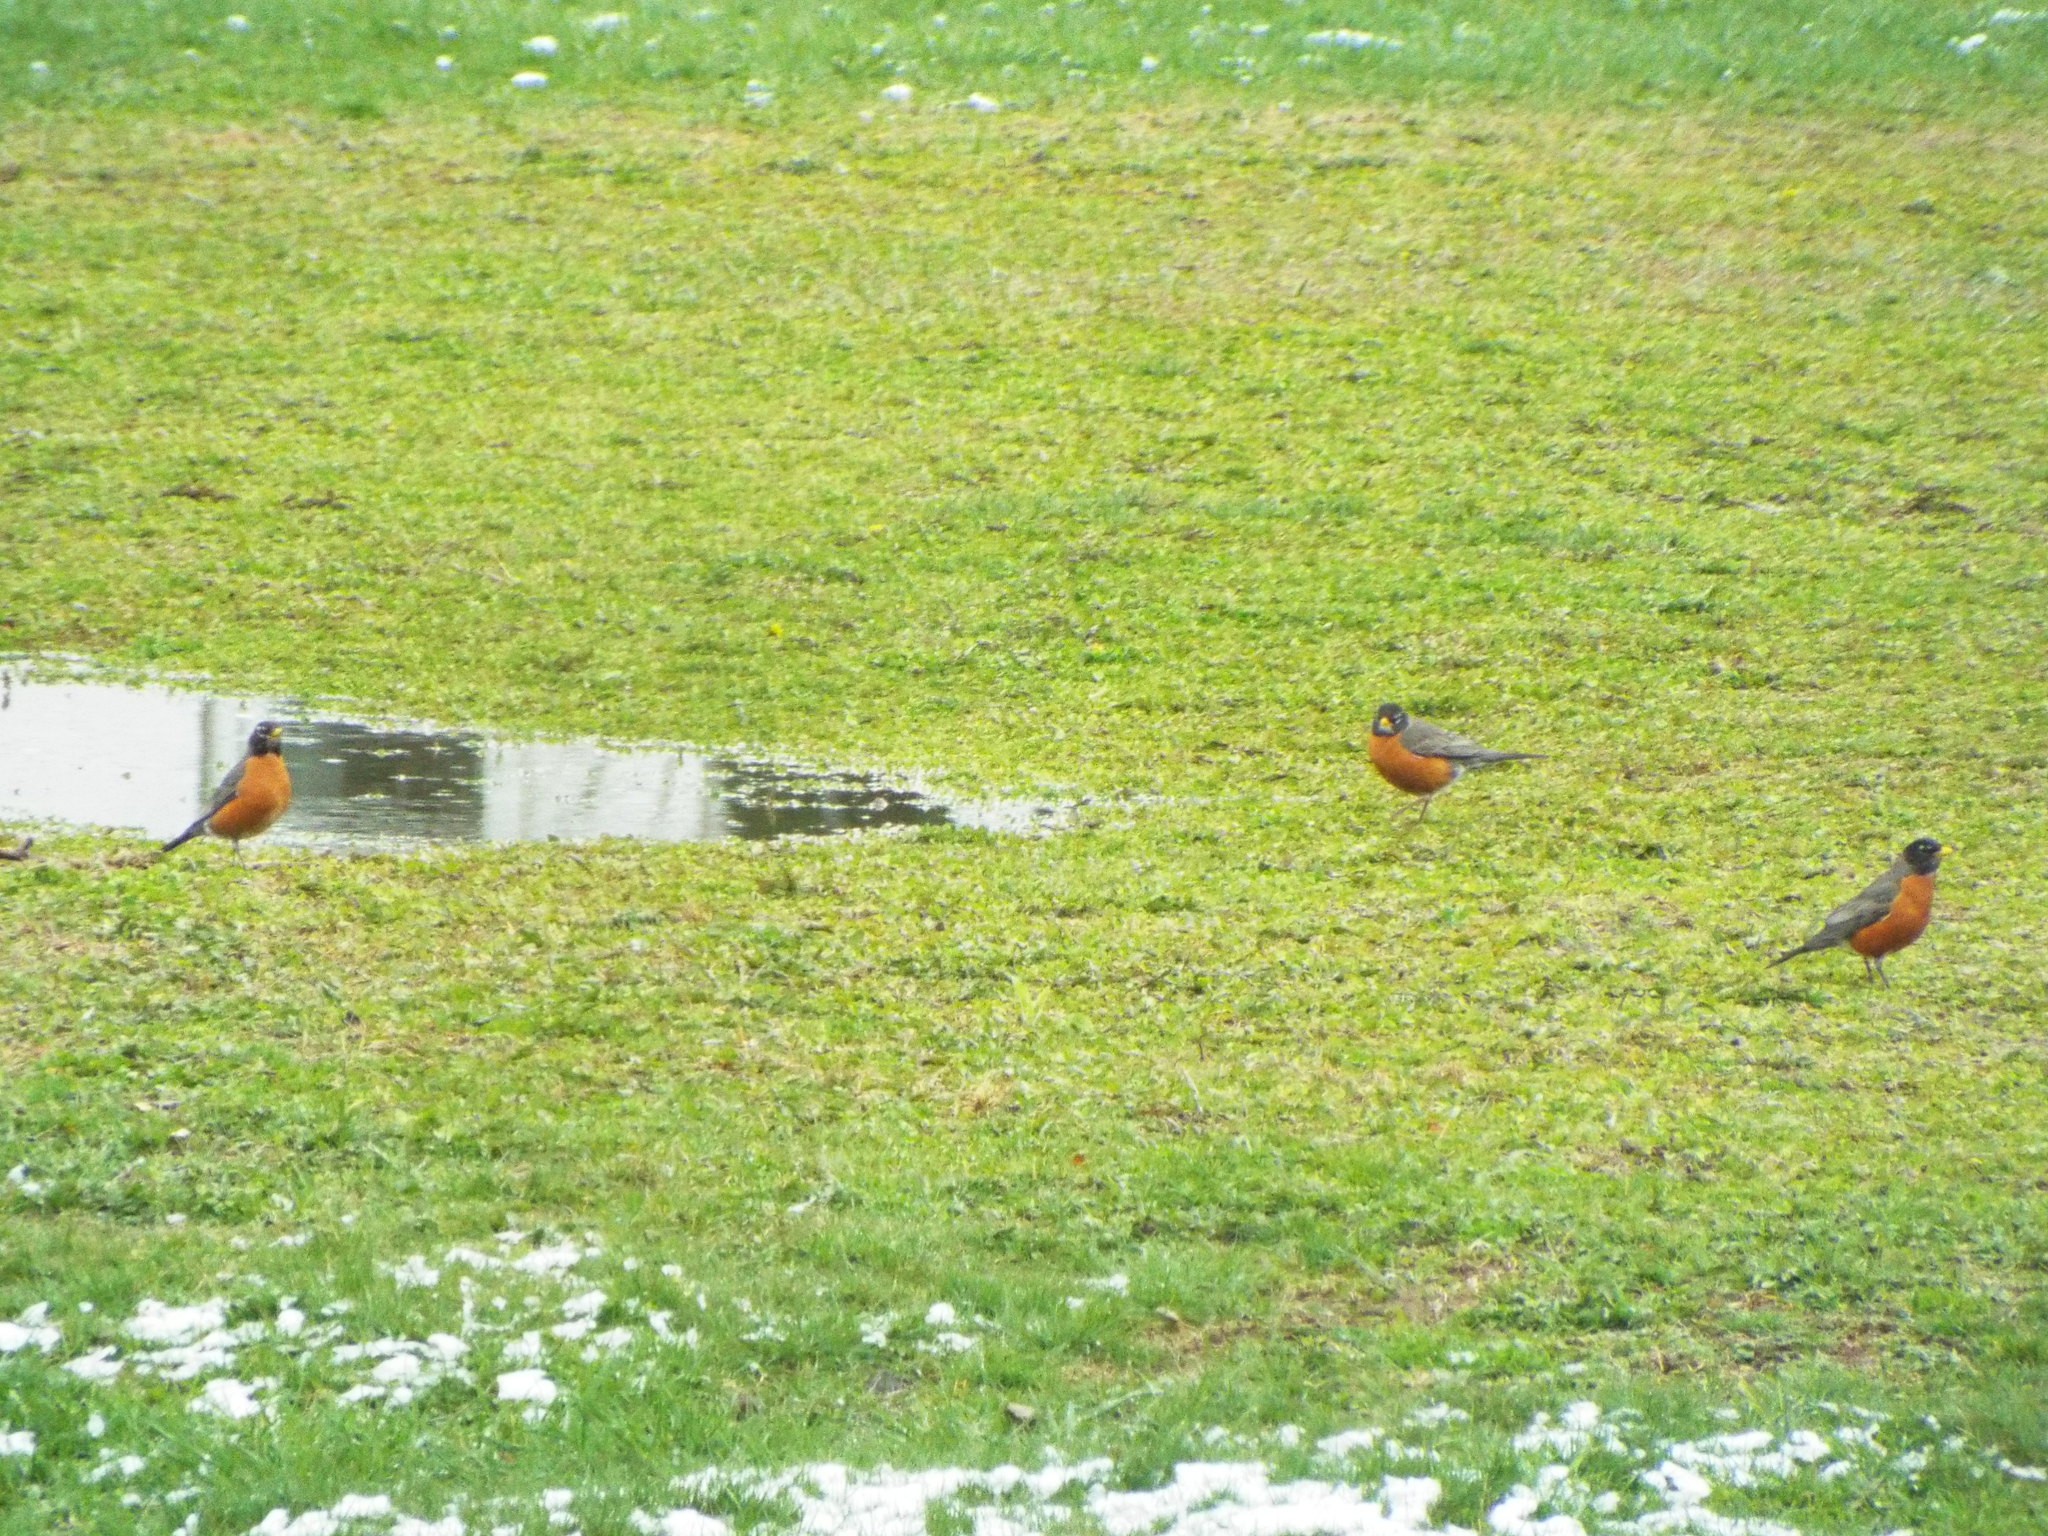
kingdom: Animalia
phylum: Chordata
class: Aves
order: Passeriformes
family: Turdidae
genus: Turdus
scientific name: Turdus migratorius
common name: American robin
